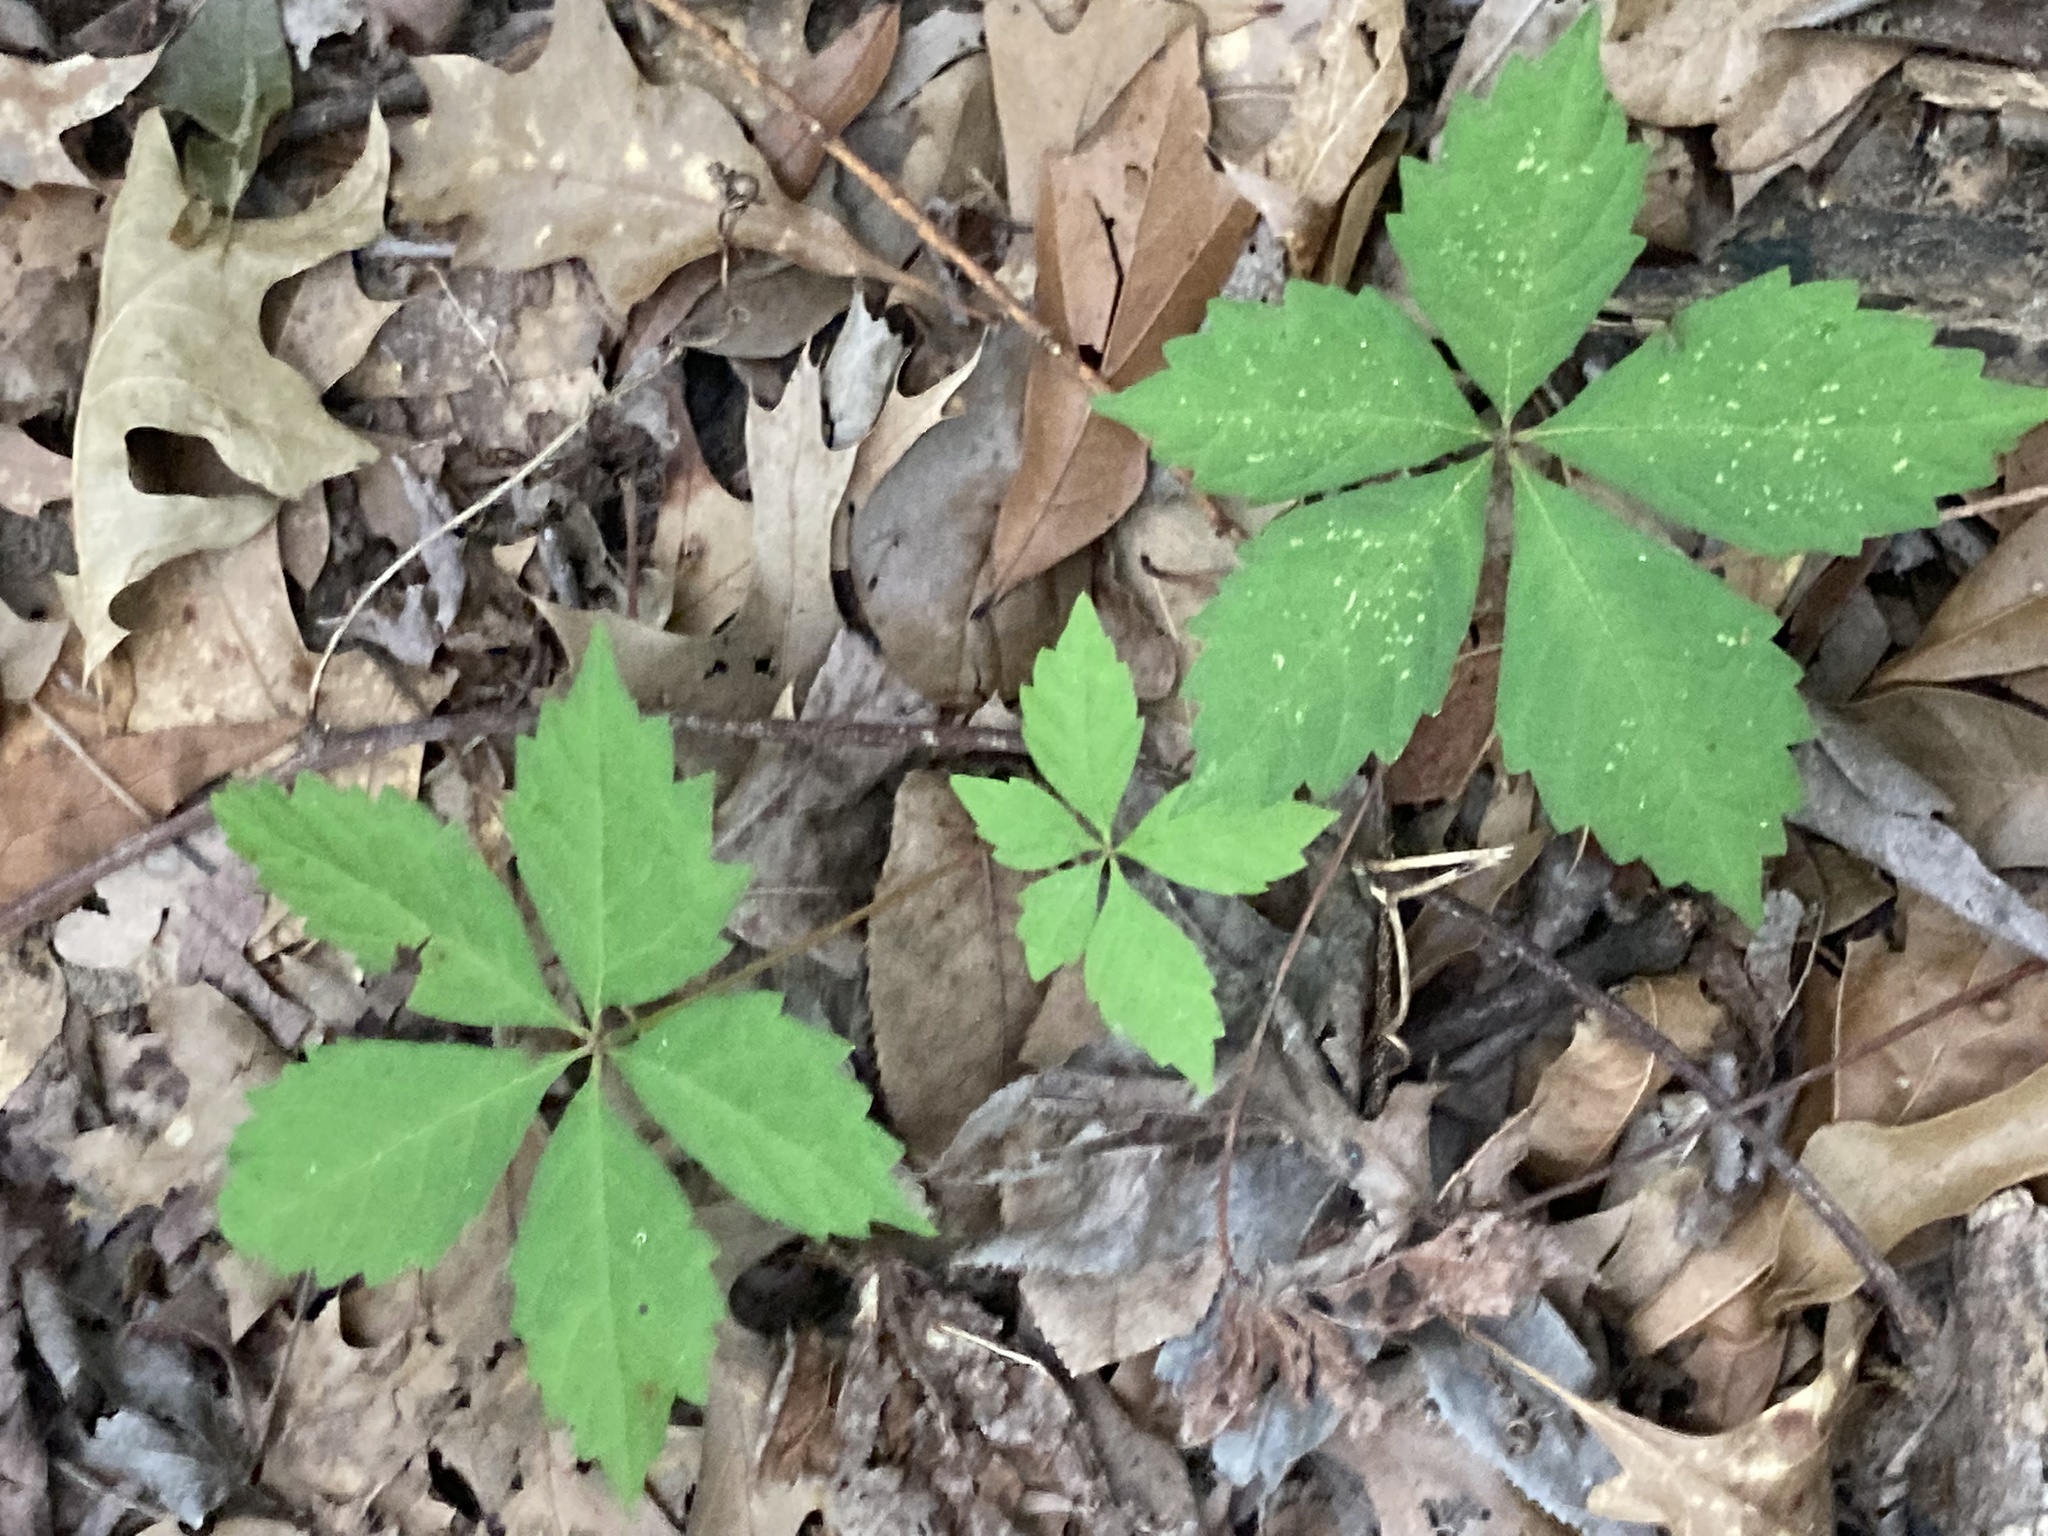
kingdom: Plantae
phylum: Tracheophyta
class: Magnoliopsida
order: Vitales
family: Vitaceae
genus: Parthenocissus
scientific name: Parthenocissus quinquefolia
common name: Virginia-creeper
